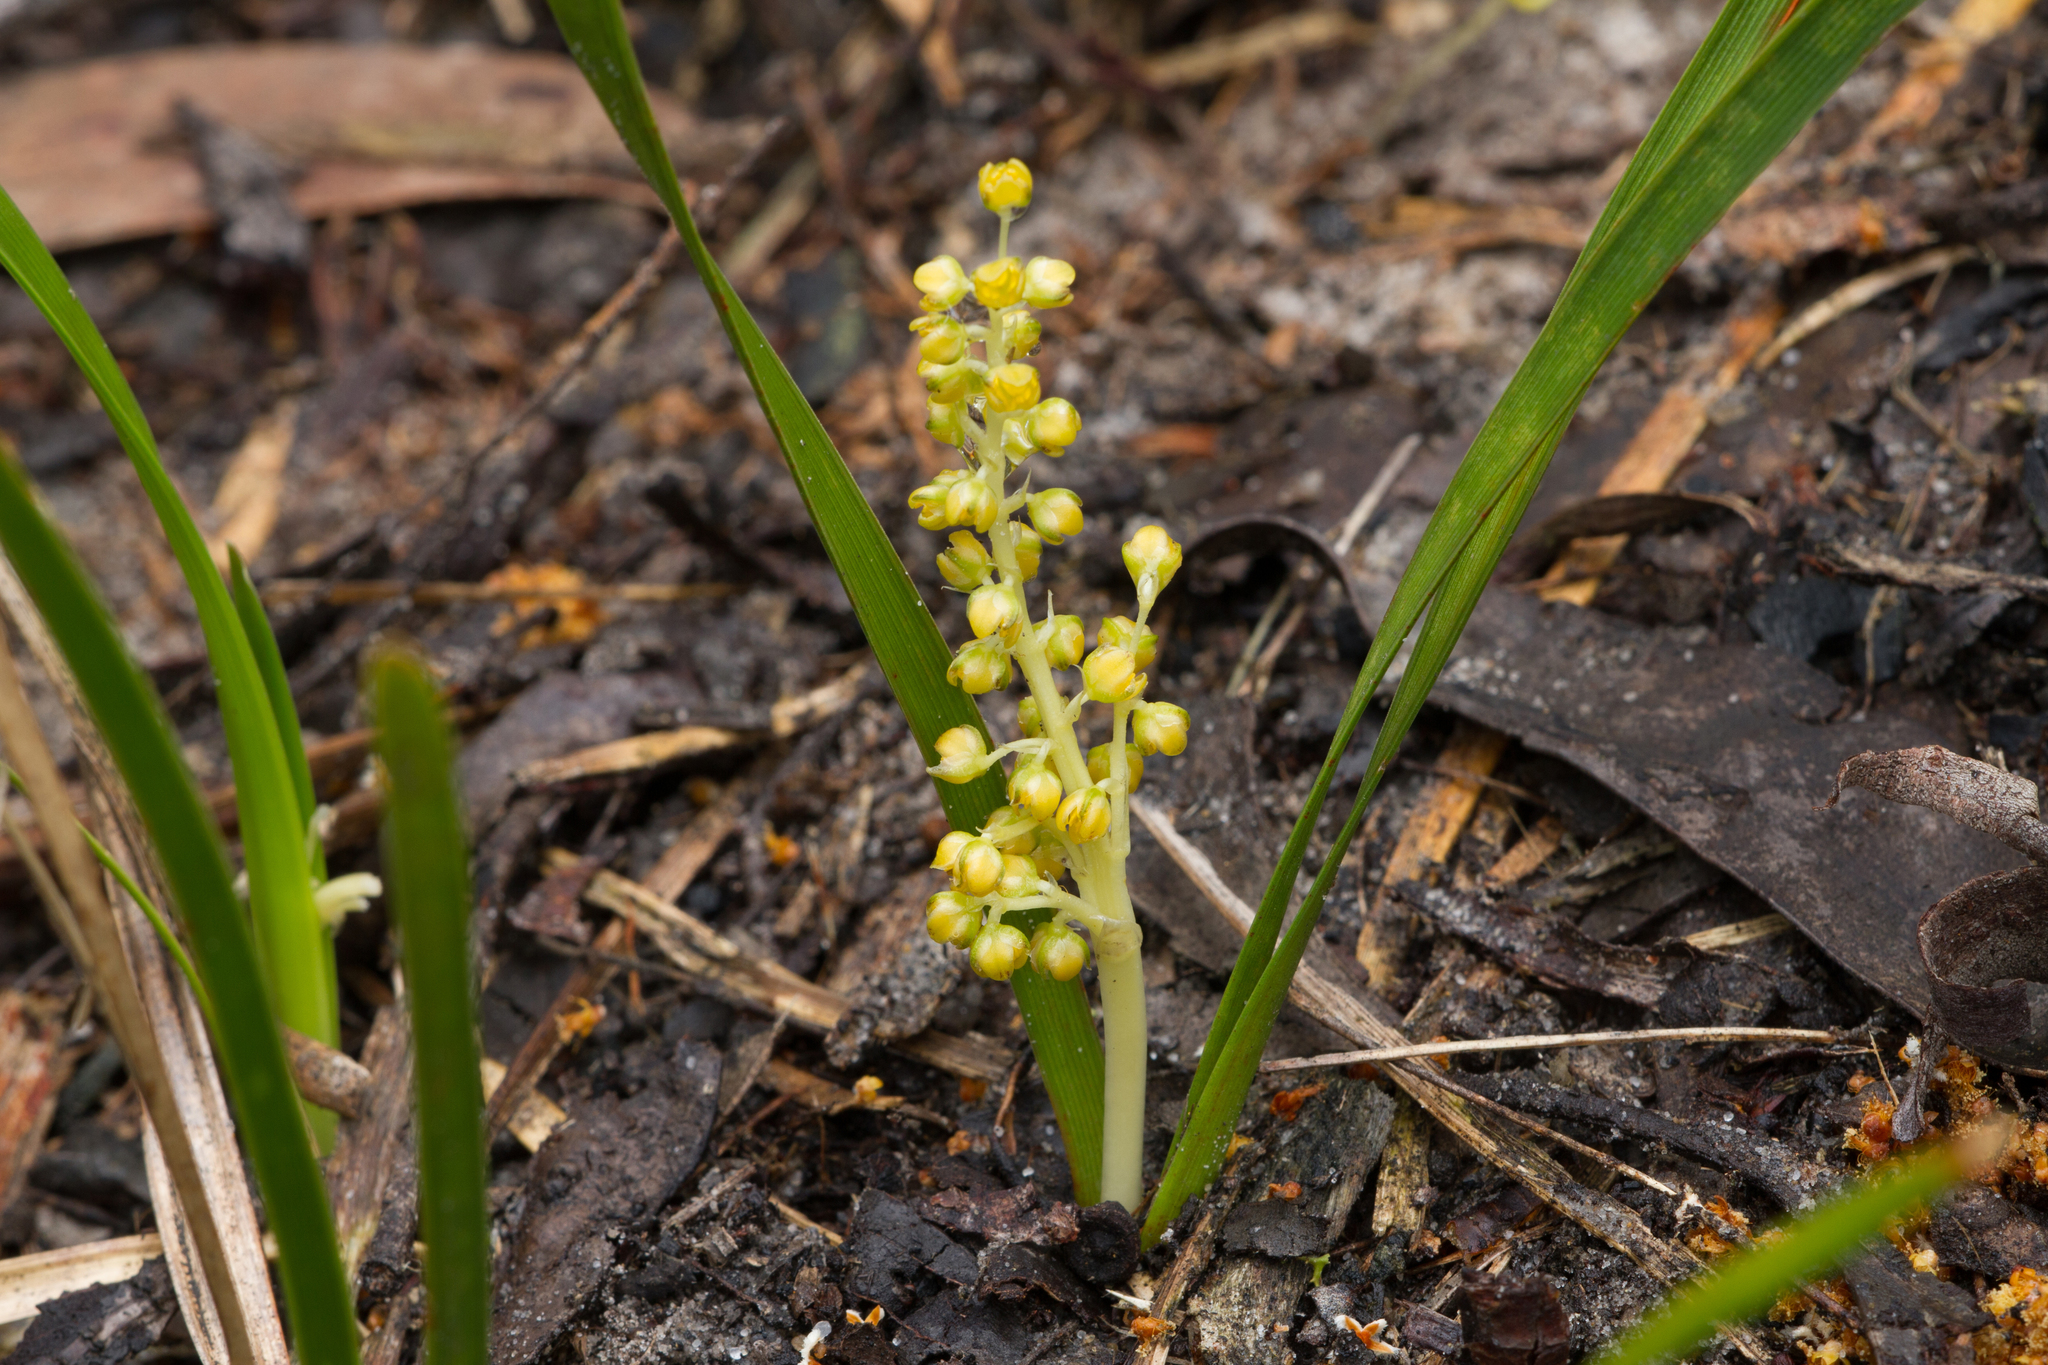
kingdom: Plantae
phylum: Tracheophyta
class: Liliopsida
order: Asparagales
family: Asparagaceae
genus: Lomandra
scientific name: Lomandra filiformis
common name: Wattle mat-rush
